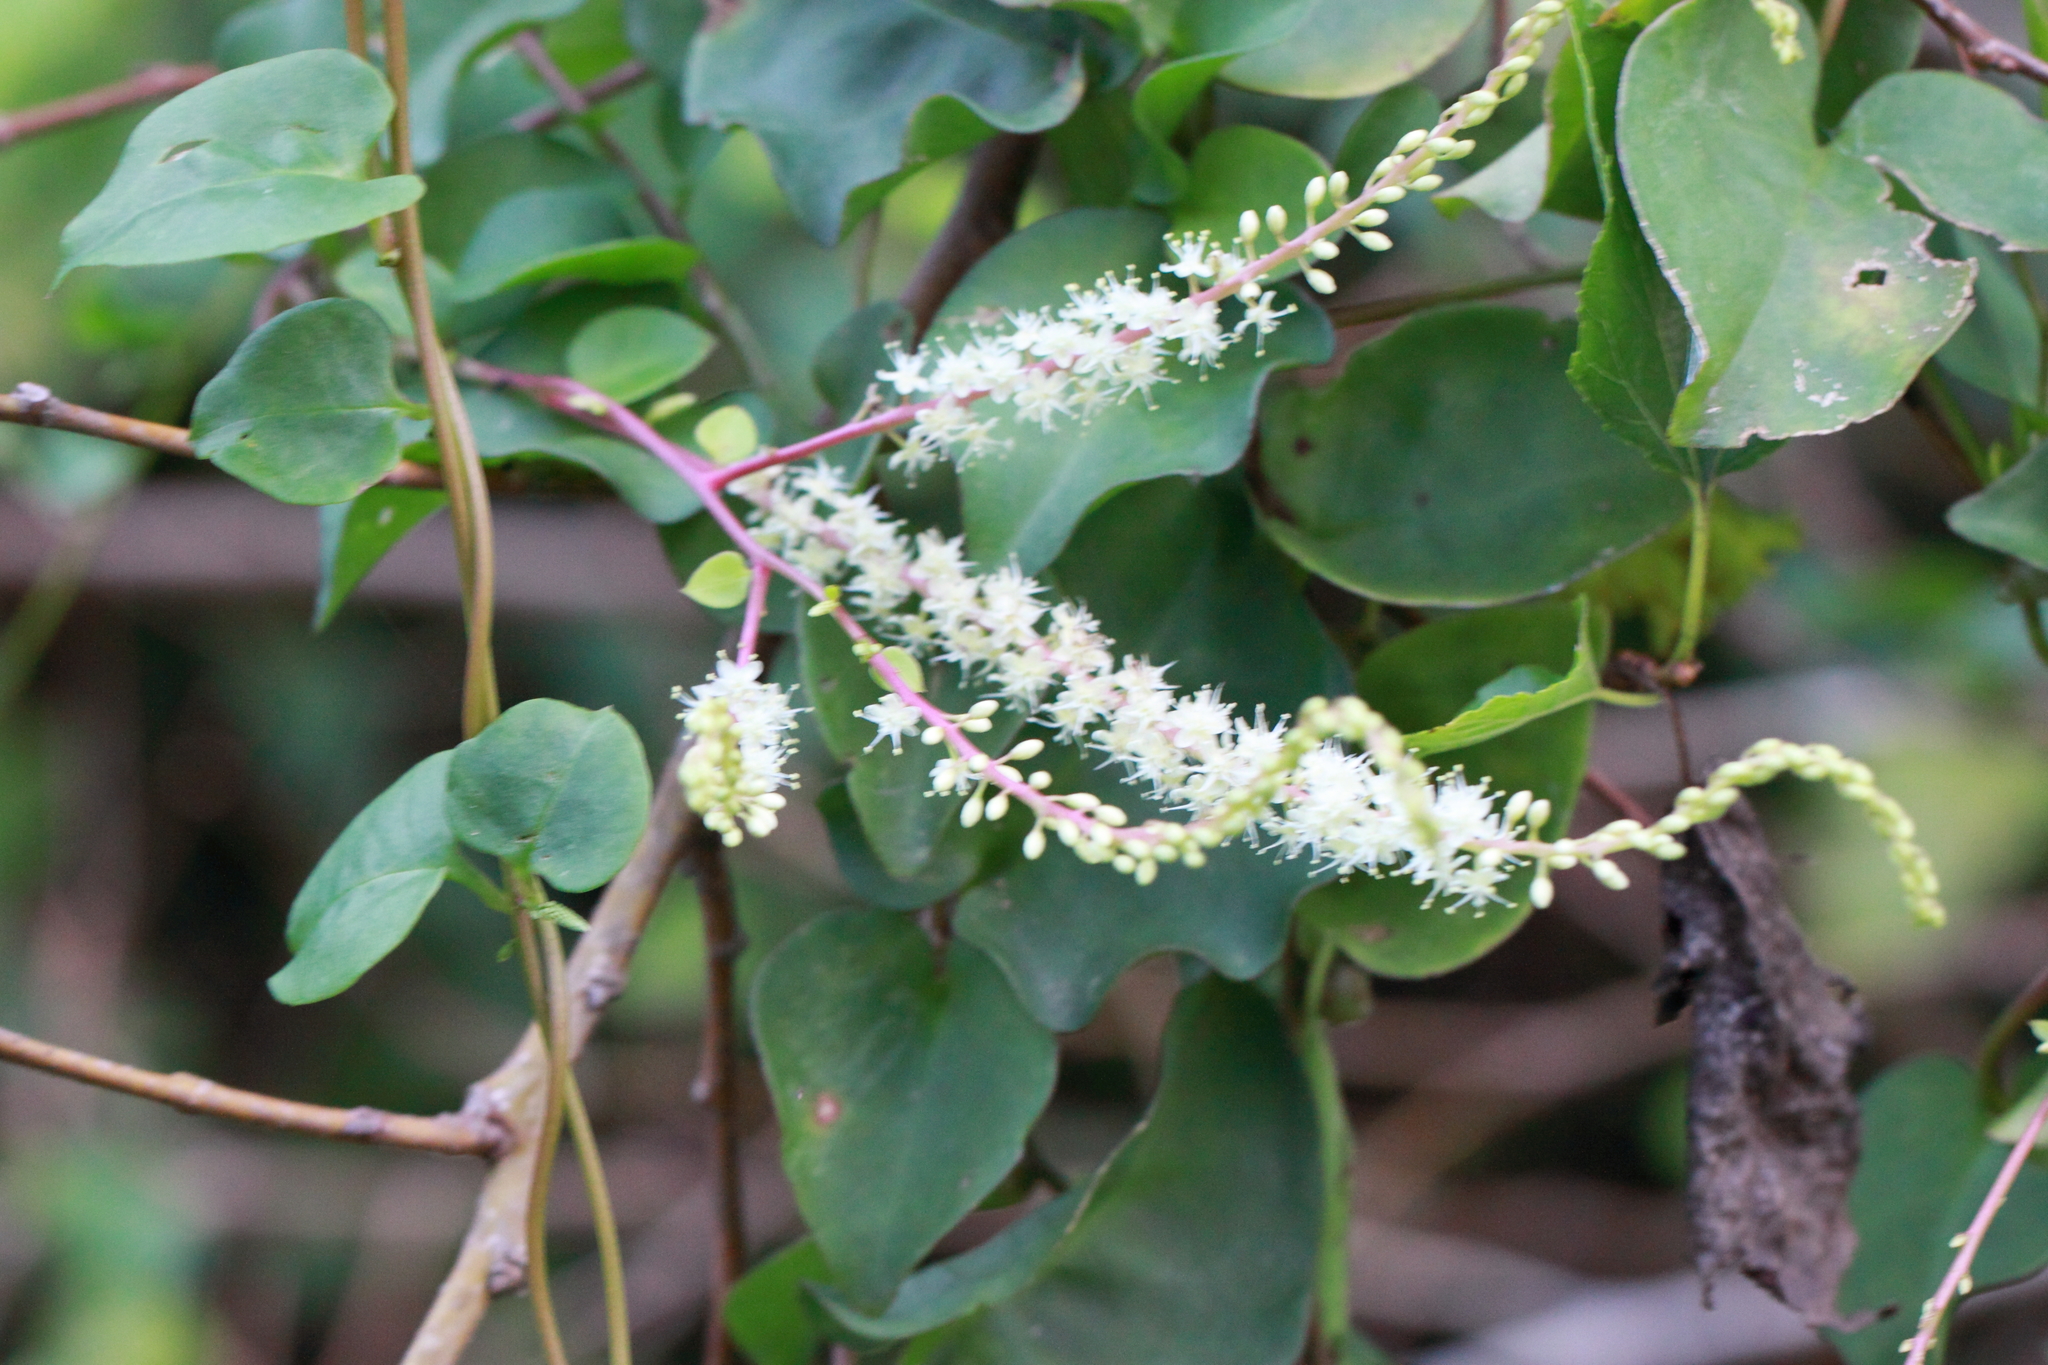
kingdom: Plantae
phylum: Tracheophyta
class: Magnoliopsida
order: Caryophyllales
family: Basellaceae
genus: Anredera
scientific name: Anredera cordifolia
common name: Heartleaf madeiravine
